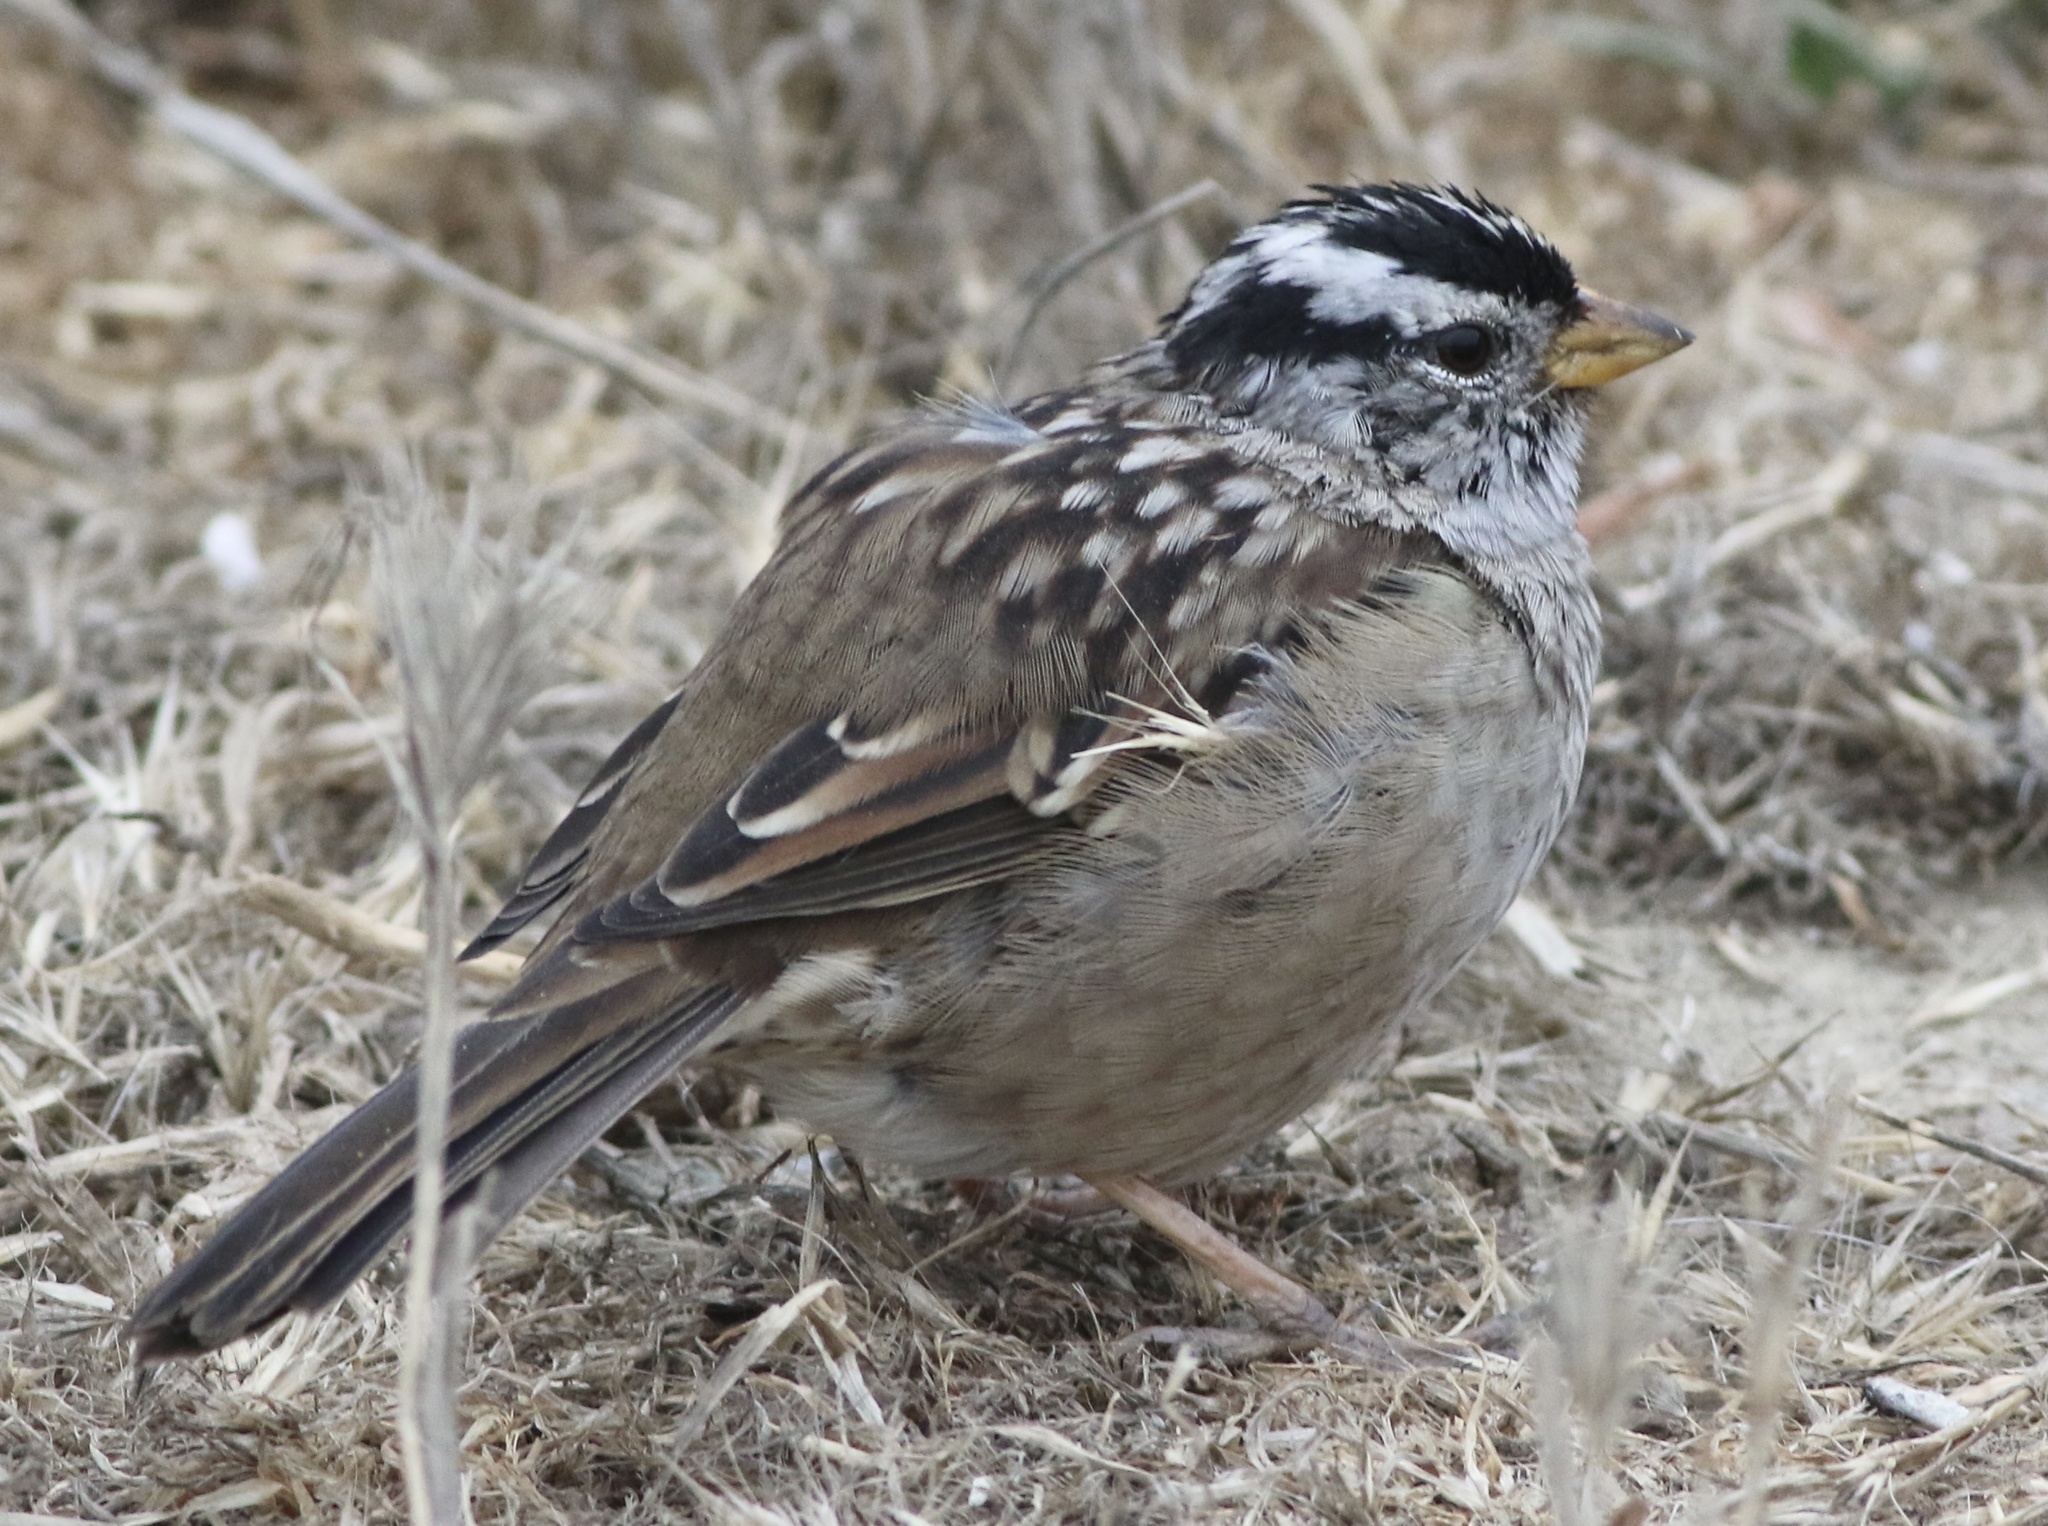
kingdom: Animalia
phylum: Chordata
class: Aves
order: Passeriformes
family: Passerellidae
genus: Zonotrichia
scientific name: Zonotrichia leucophrys
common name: White-crowned sparrow
